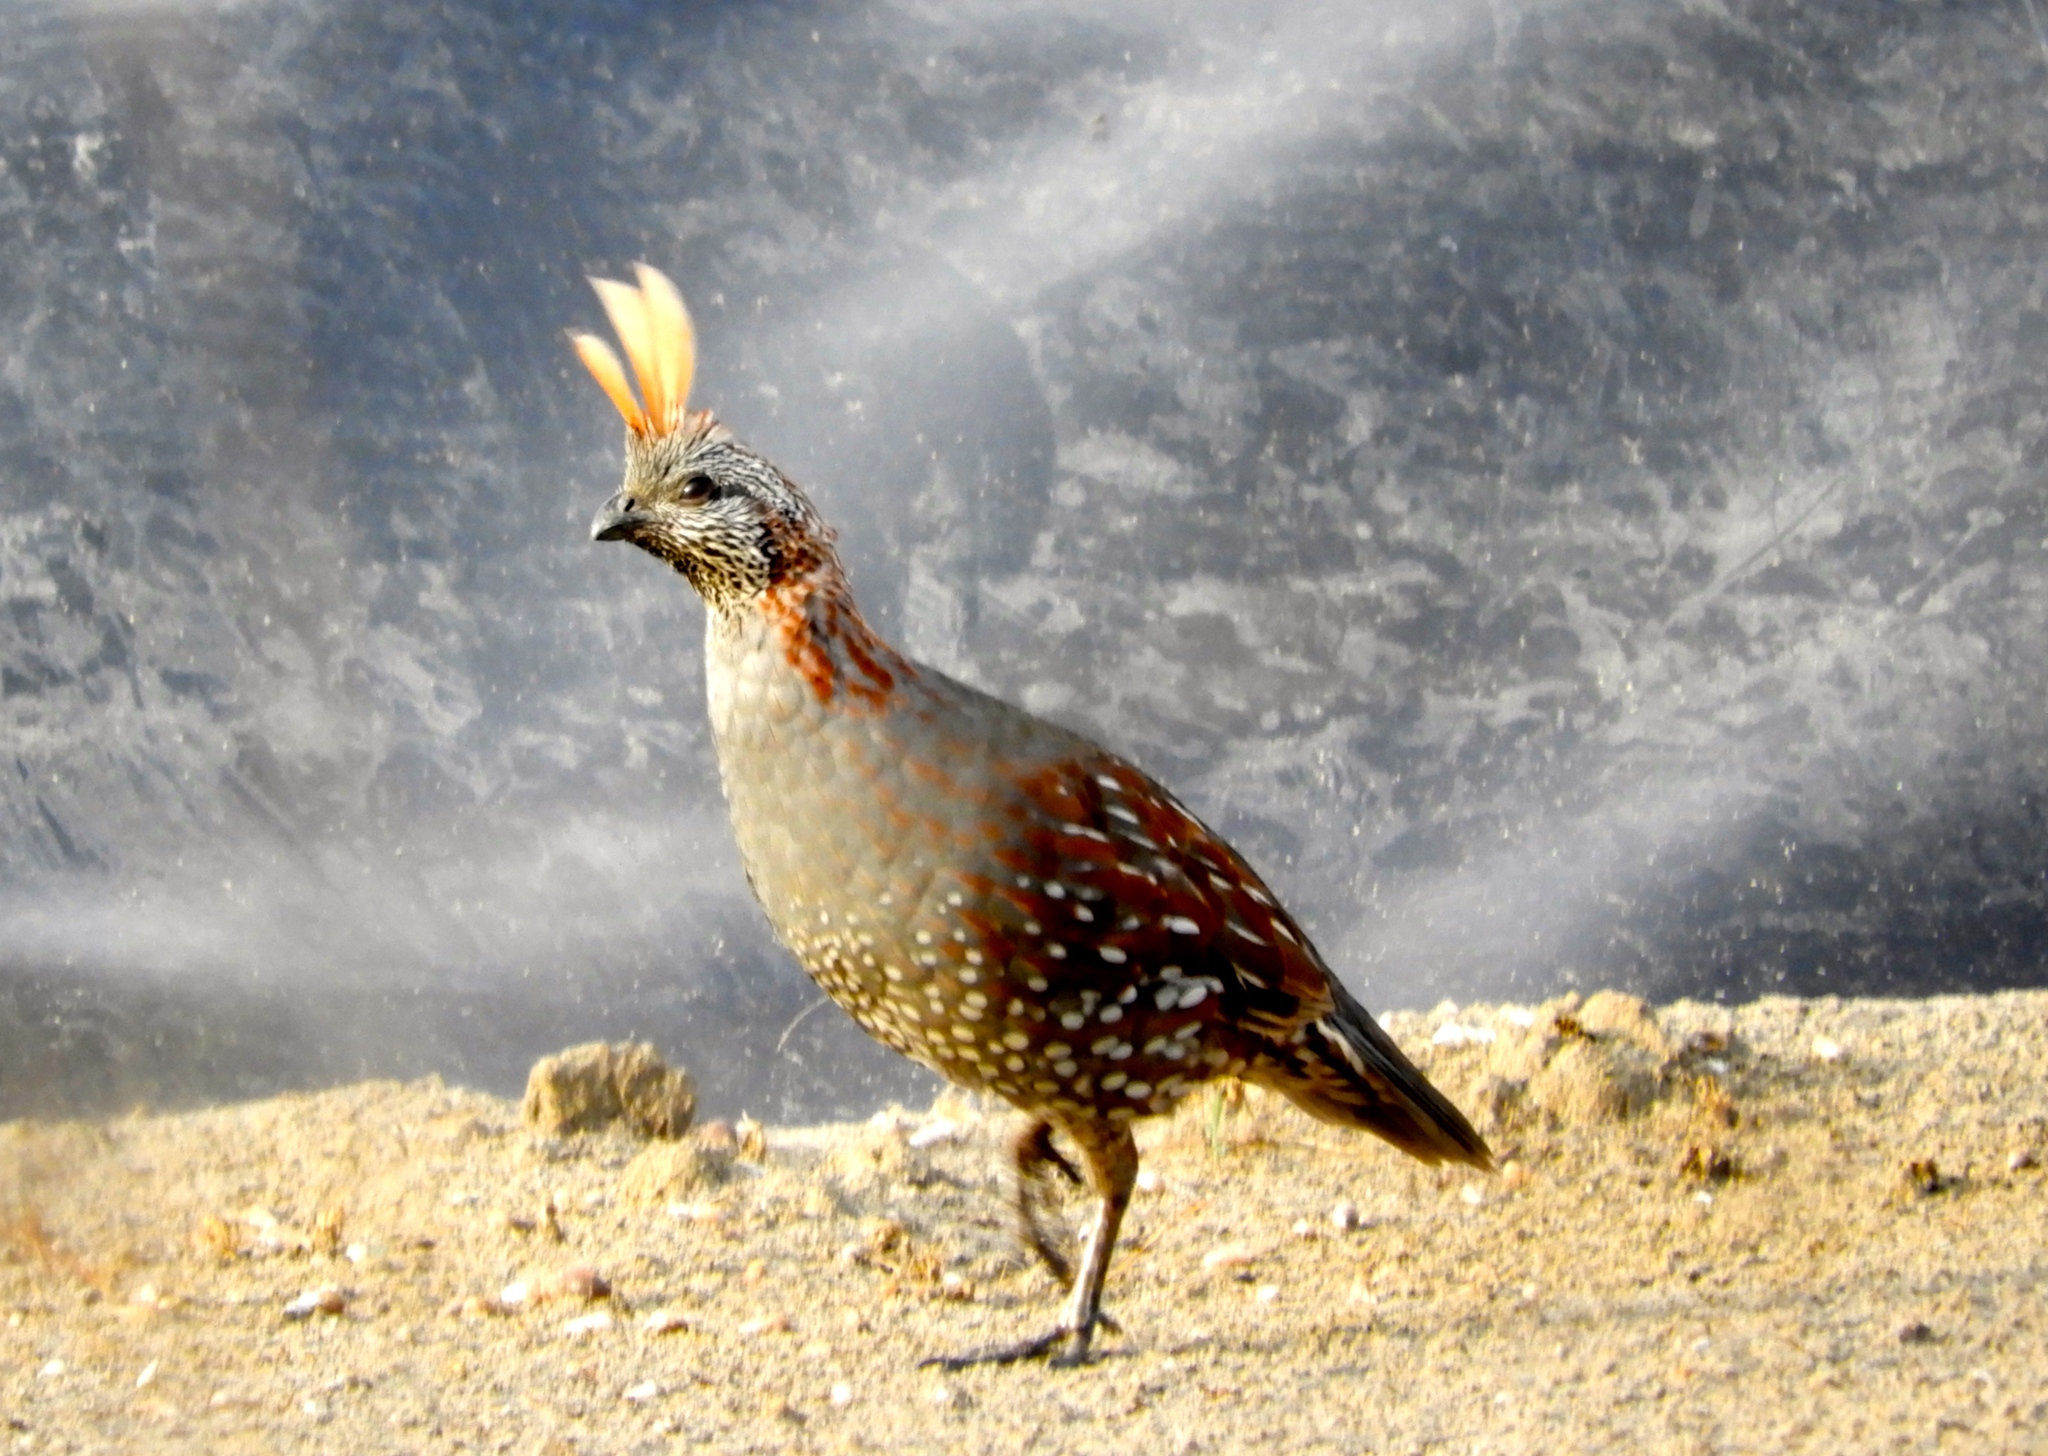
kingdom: Animalia
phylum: Chordata
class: Aves
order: Galliformes
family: Odontophoridae
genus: Callipepla
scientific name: Callipepla douglasii
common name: Elegant quail
